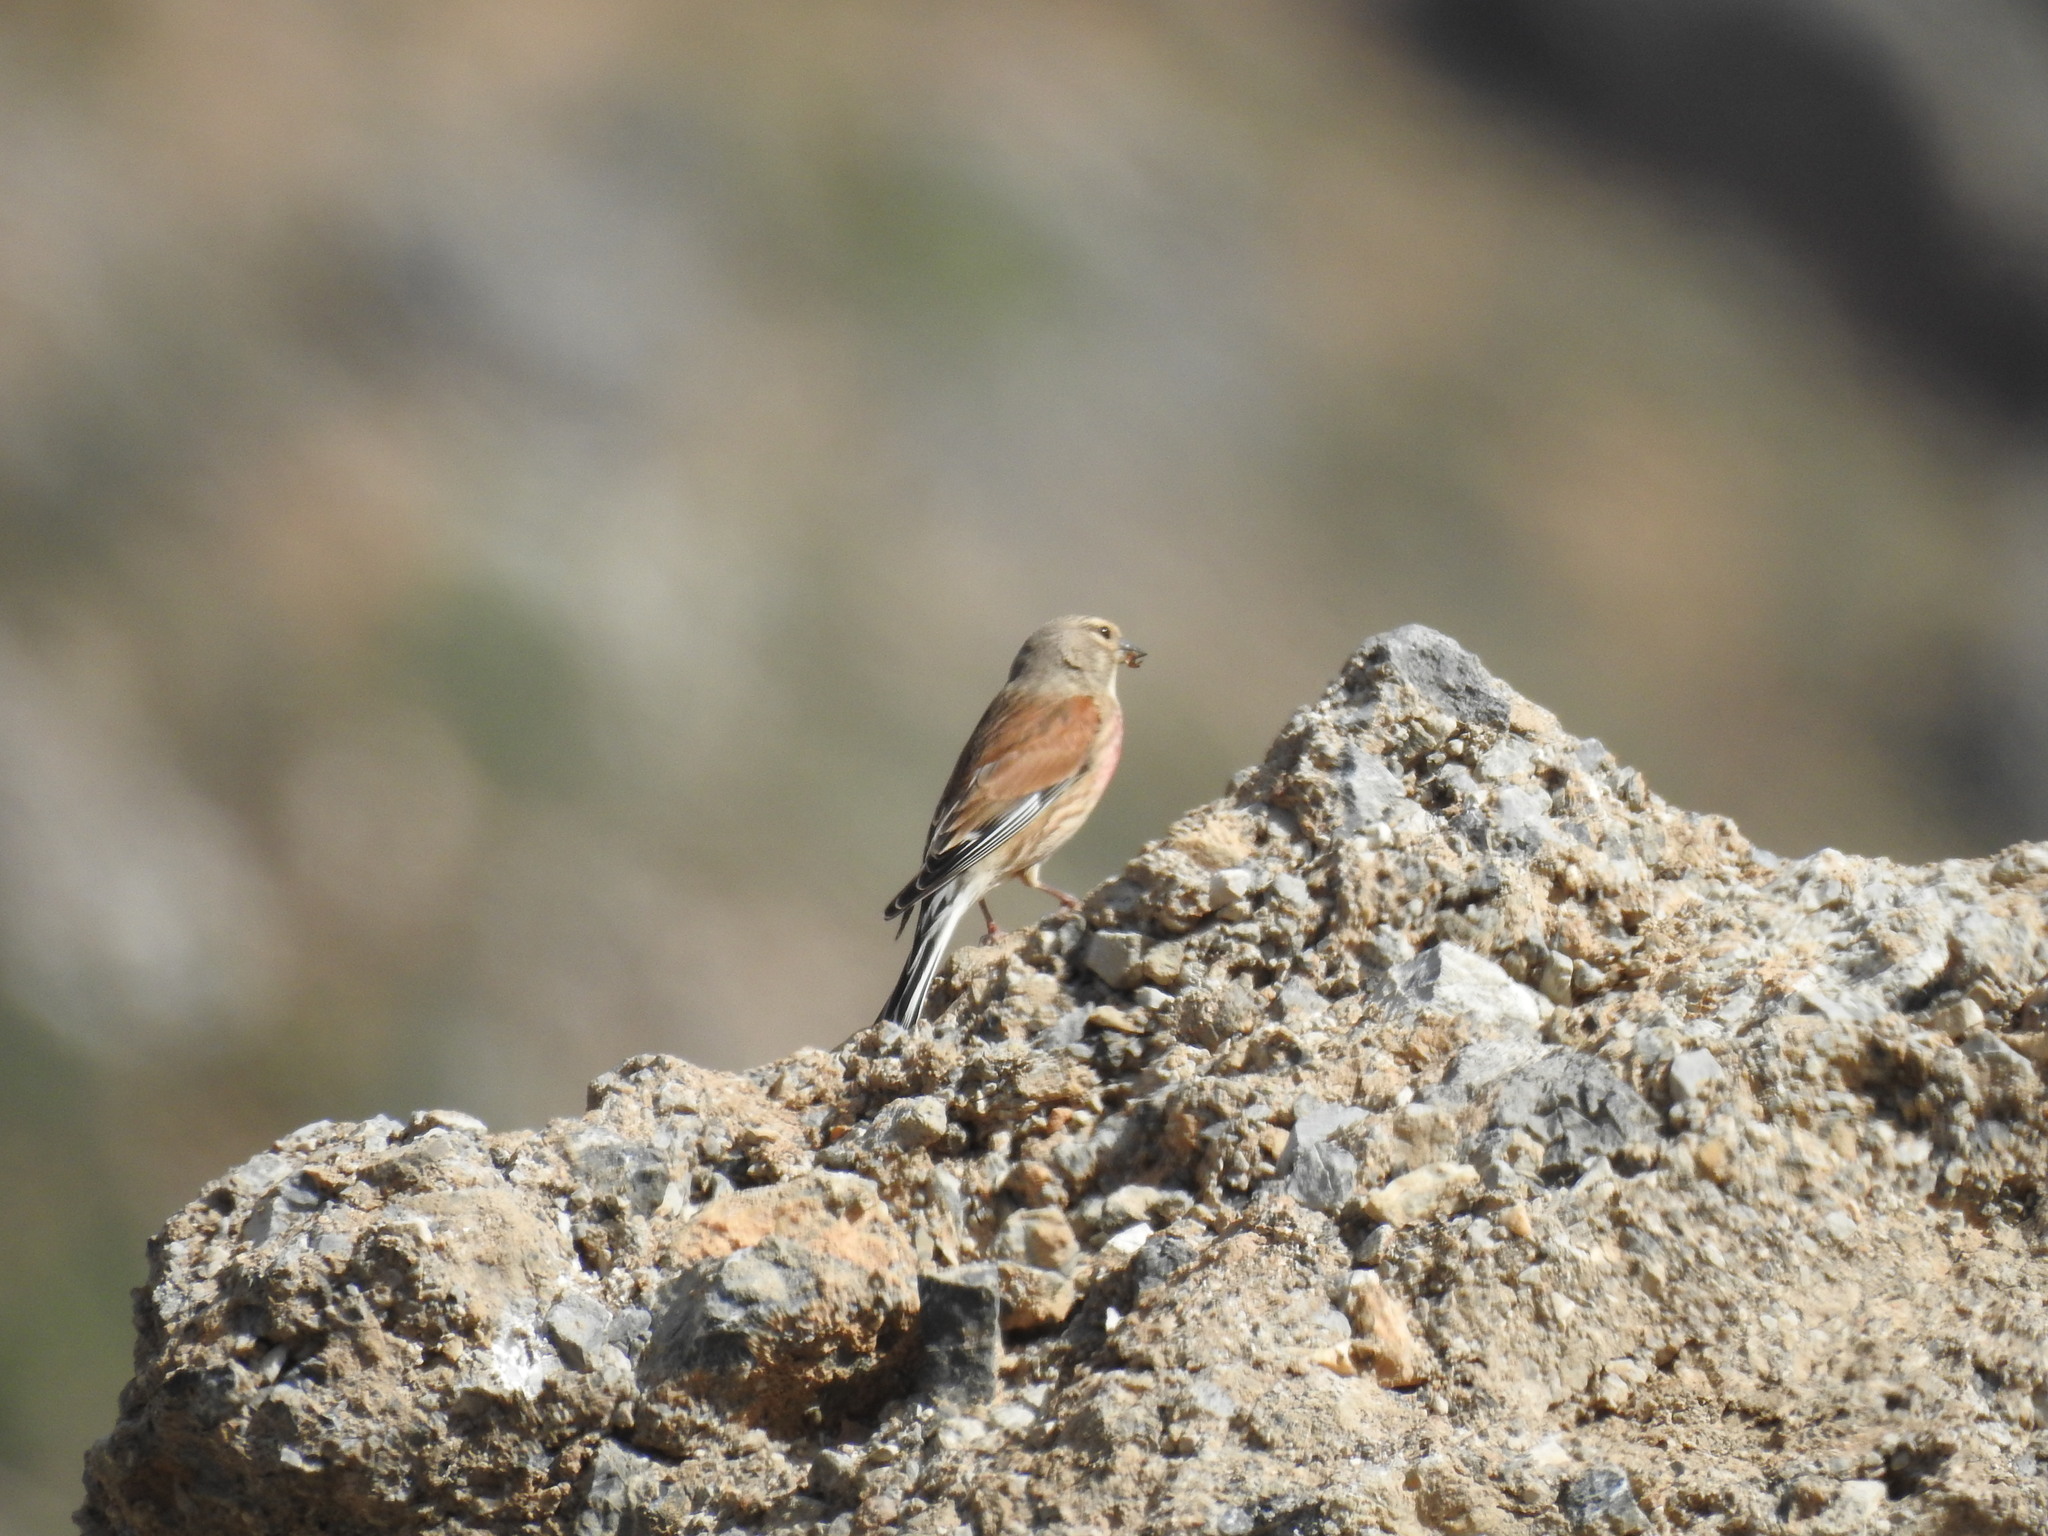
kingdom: Animalia
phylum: Chordata
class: Aves
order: Passeriformes
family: Fringillidae
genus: Linaria
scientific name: Linaria cannabina
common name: Common linnet
